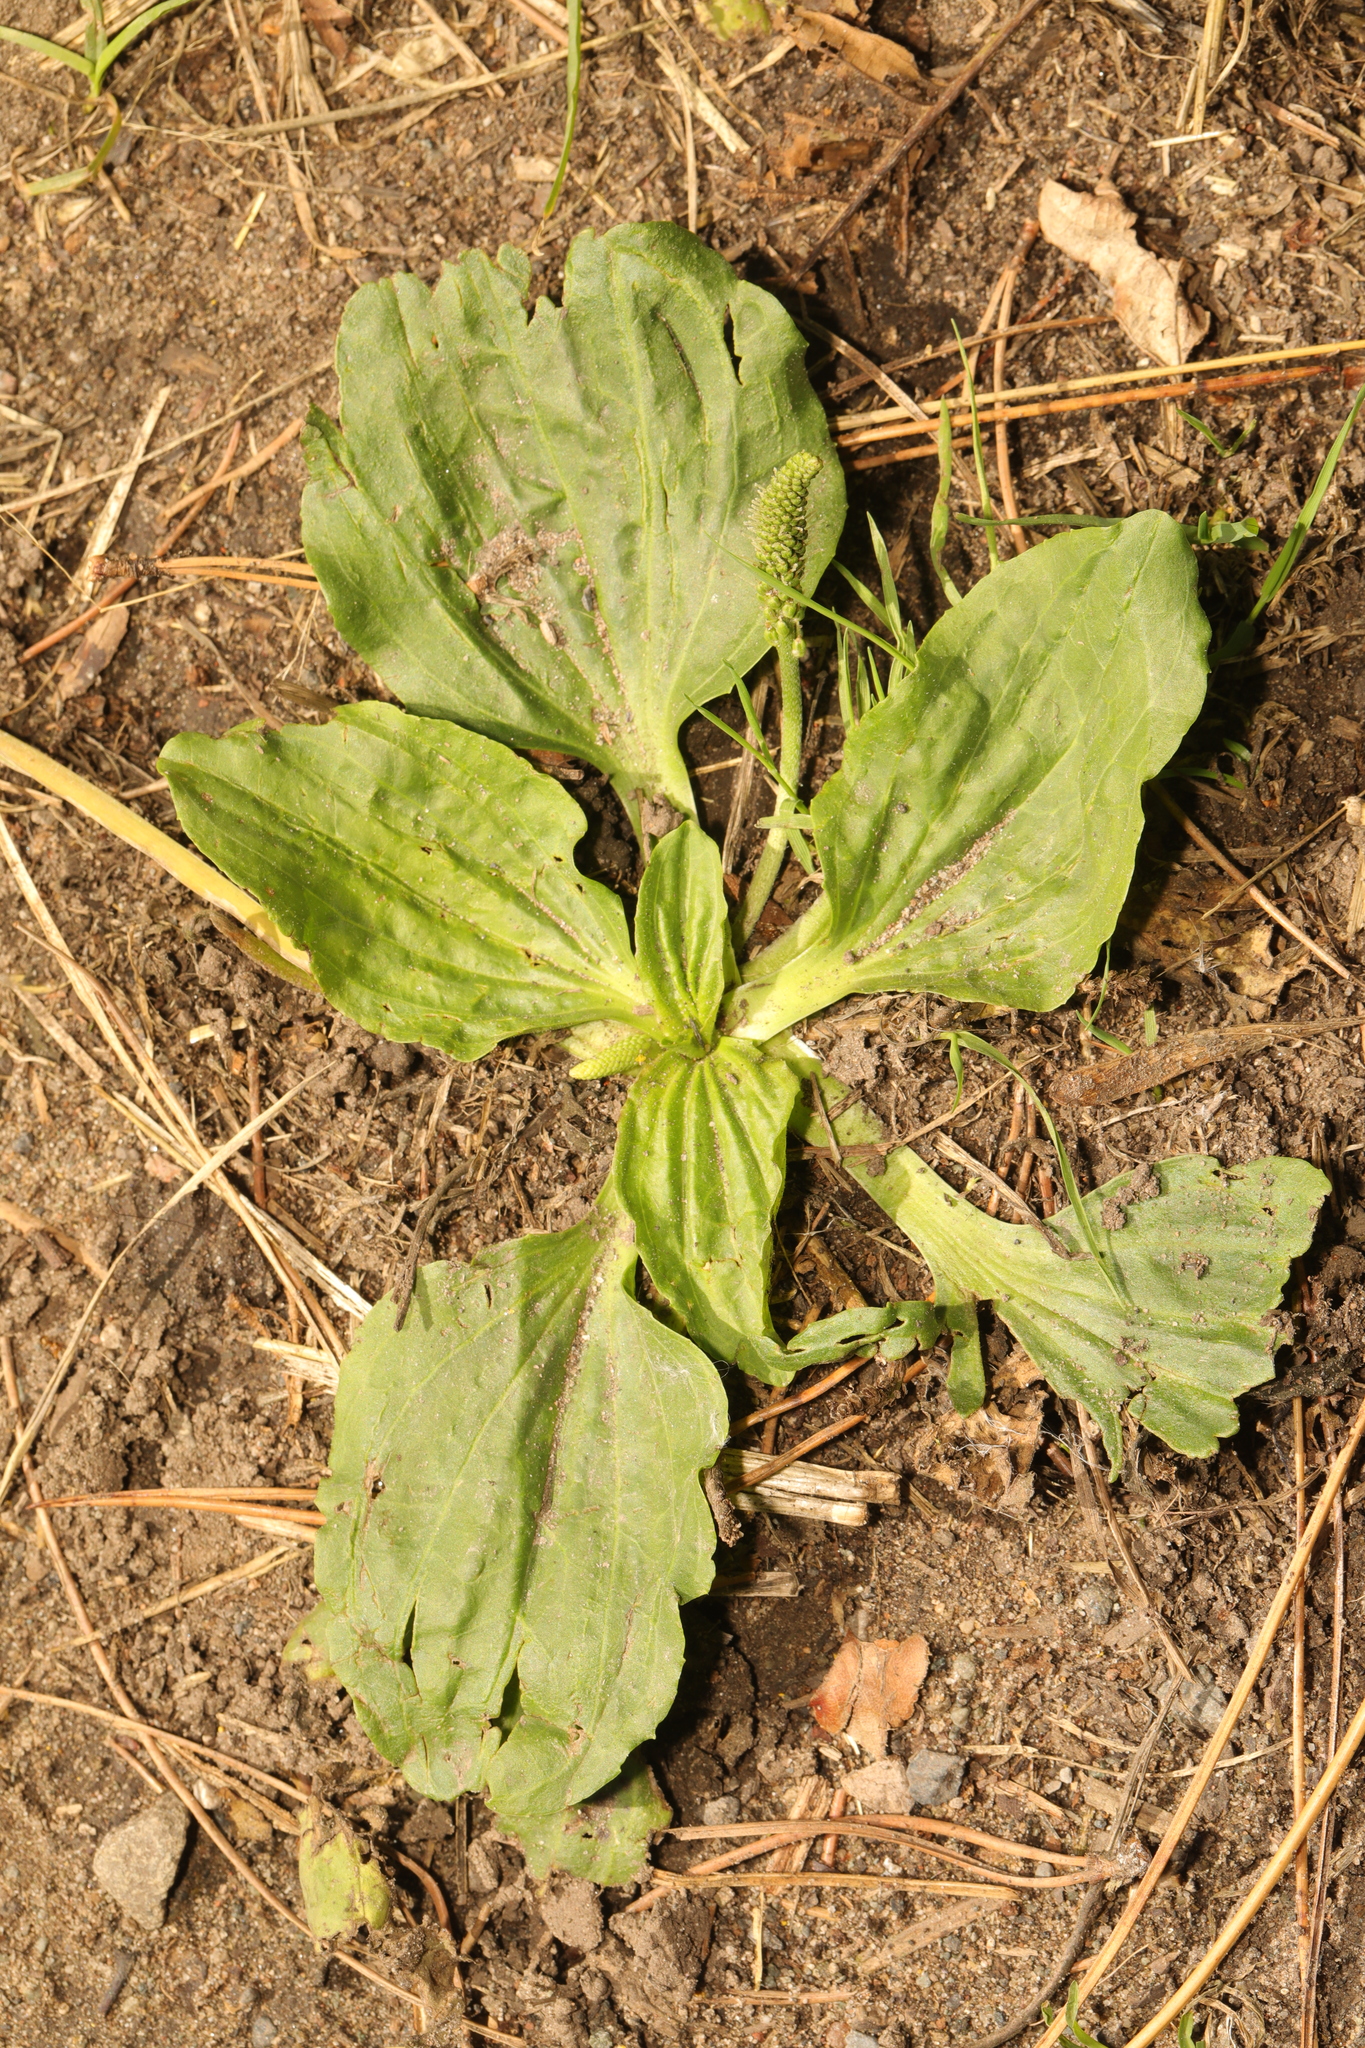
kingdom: Plantae
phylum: Tracheophyta
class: Magnoliopsida
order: Lamiales
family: Plantaginaceae
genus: Plantago
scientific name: Plantago major
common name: Common plantain
